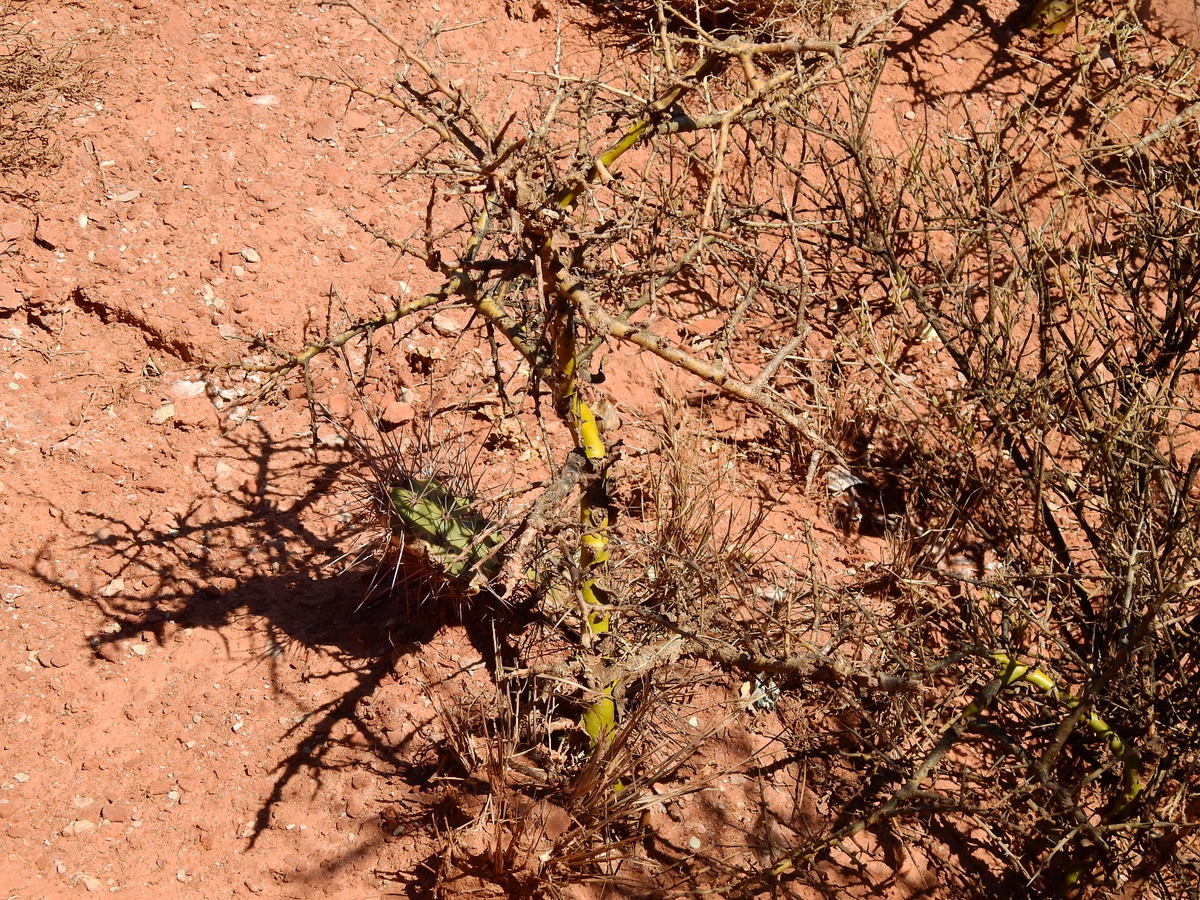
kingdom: Plantae
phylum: Tracheophyta
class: Magnoliopsida
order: Fabales
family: Fabaceae
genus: Geoffroea
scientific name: Geoffroea decorticans
